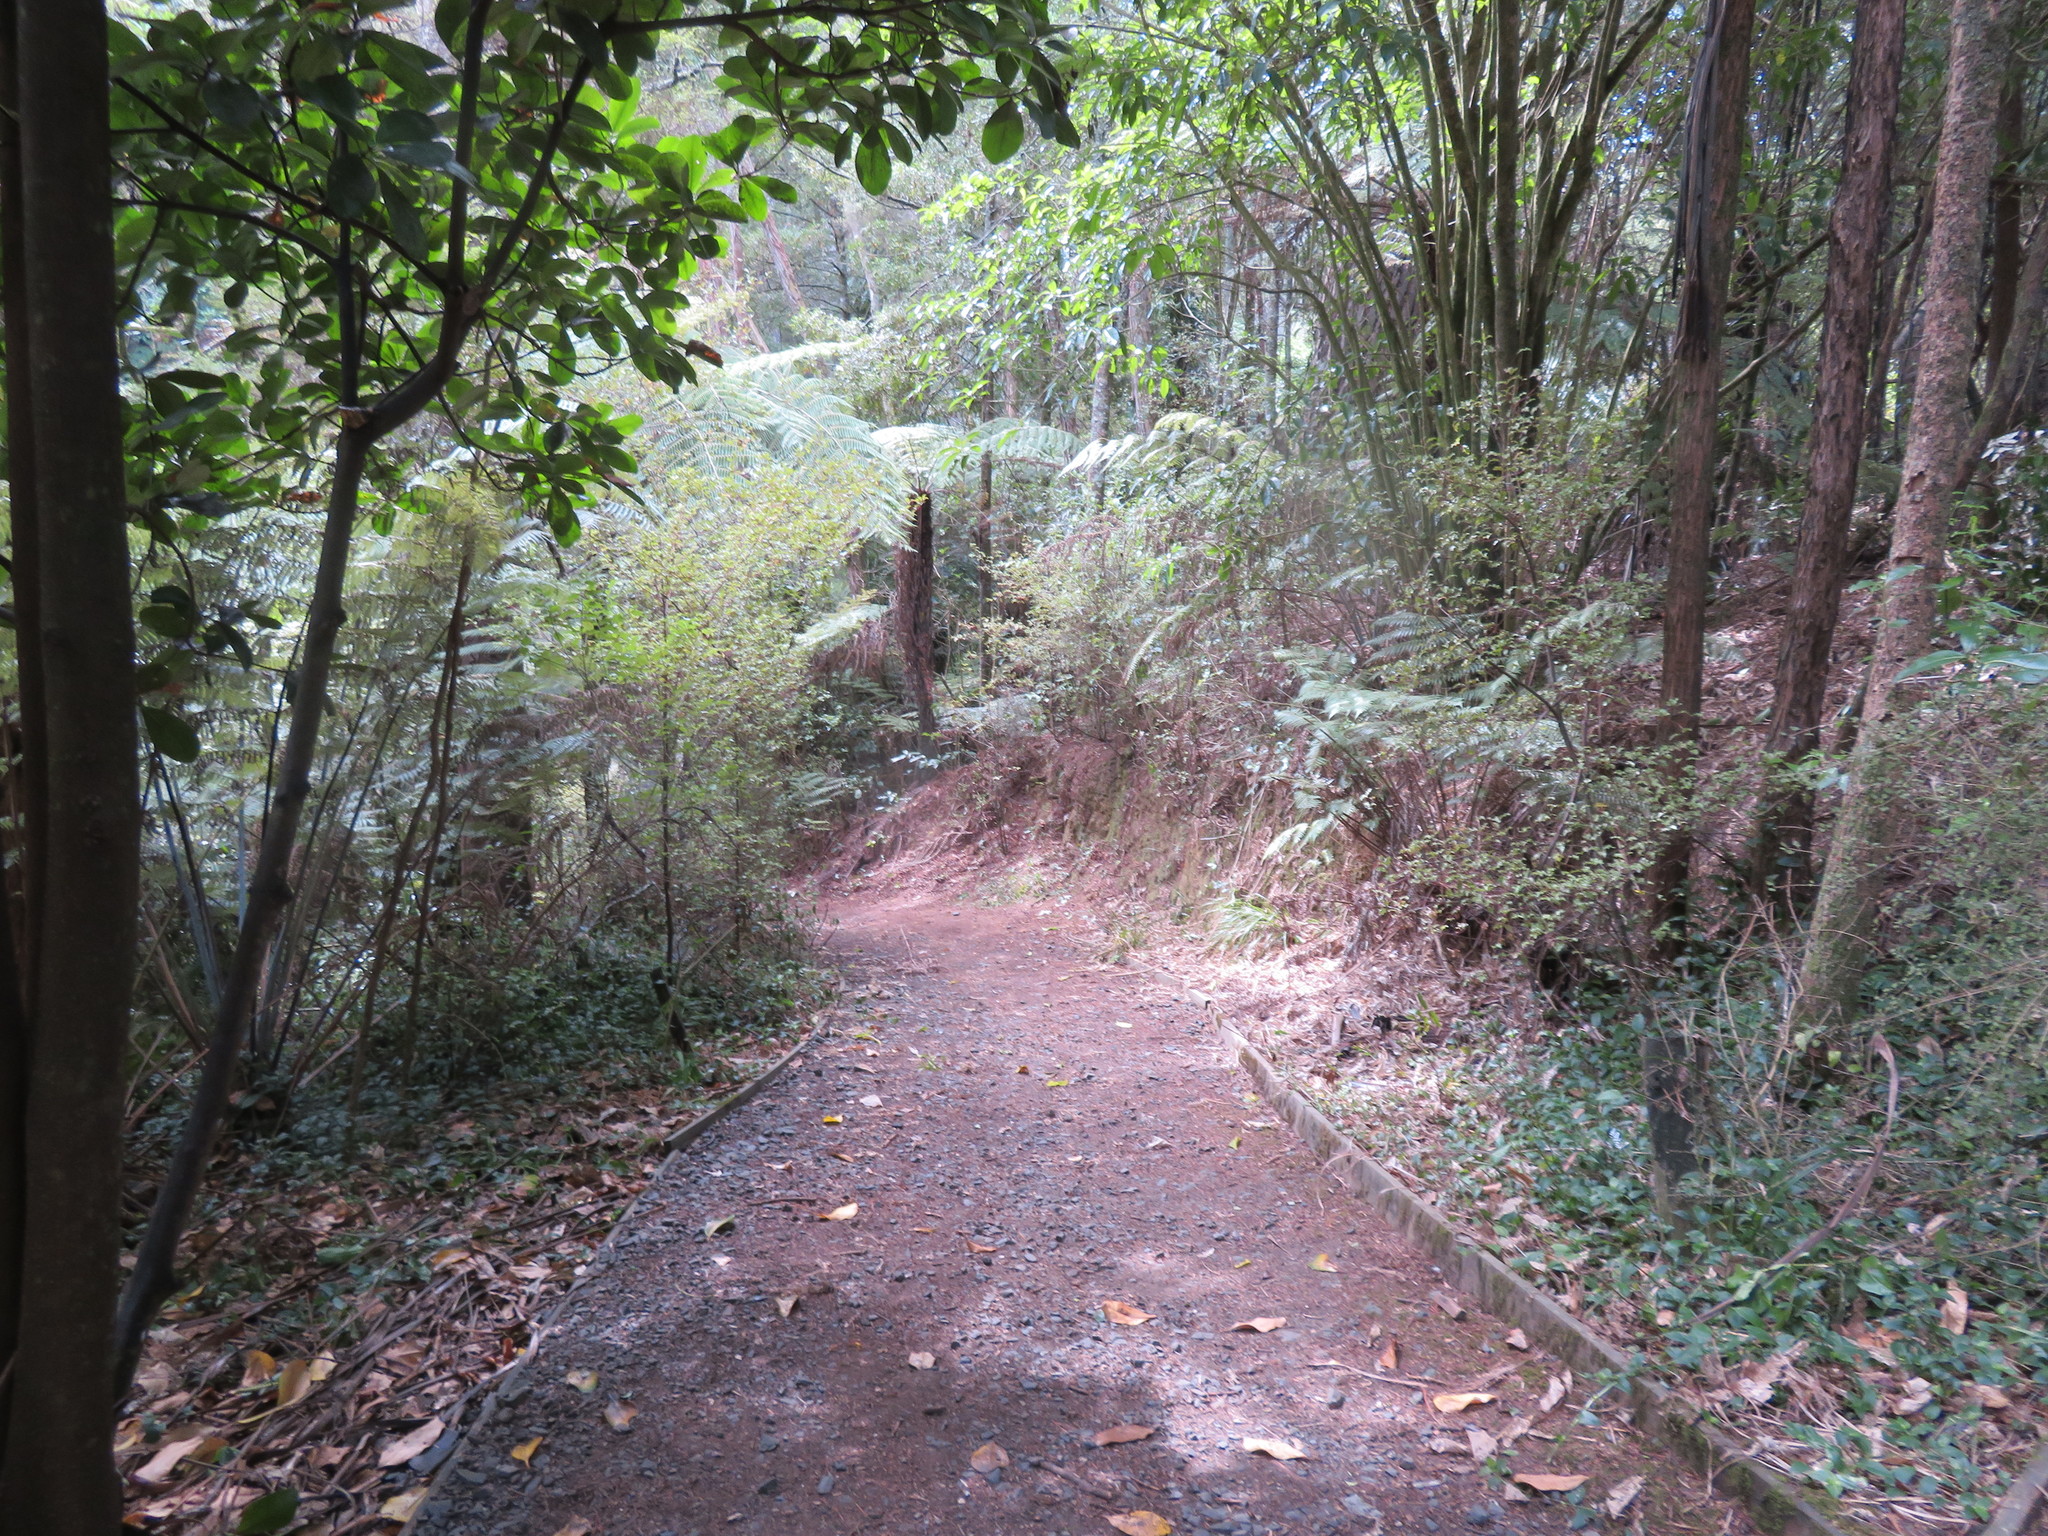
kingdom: Plantae
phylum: Tracheophyta
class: Liliopsida
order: Commelinales
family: Commelinaceae
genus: Tradescantia
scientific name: Tradescantia fluminensis
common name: Wandering-jew
